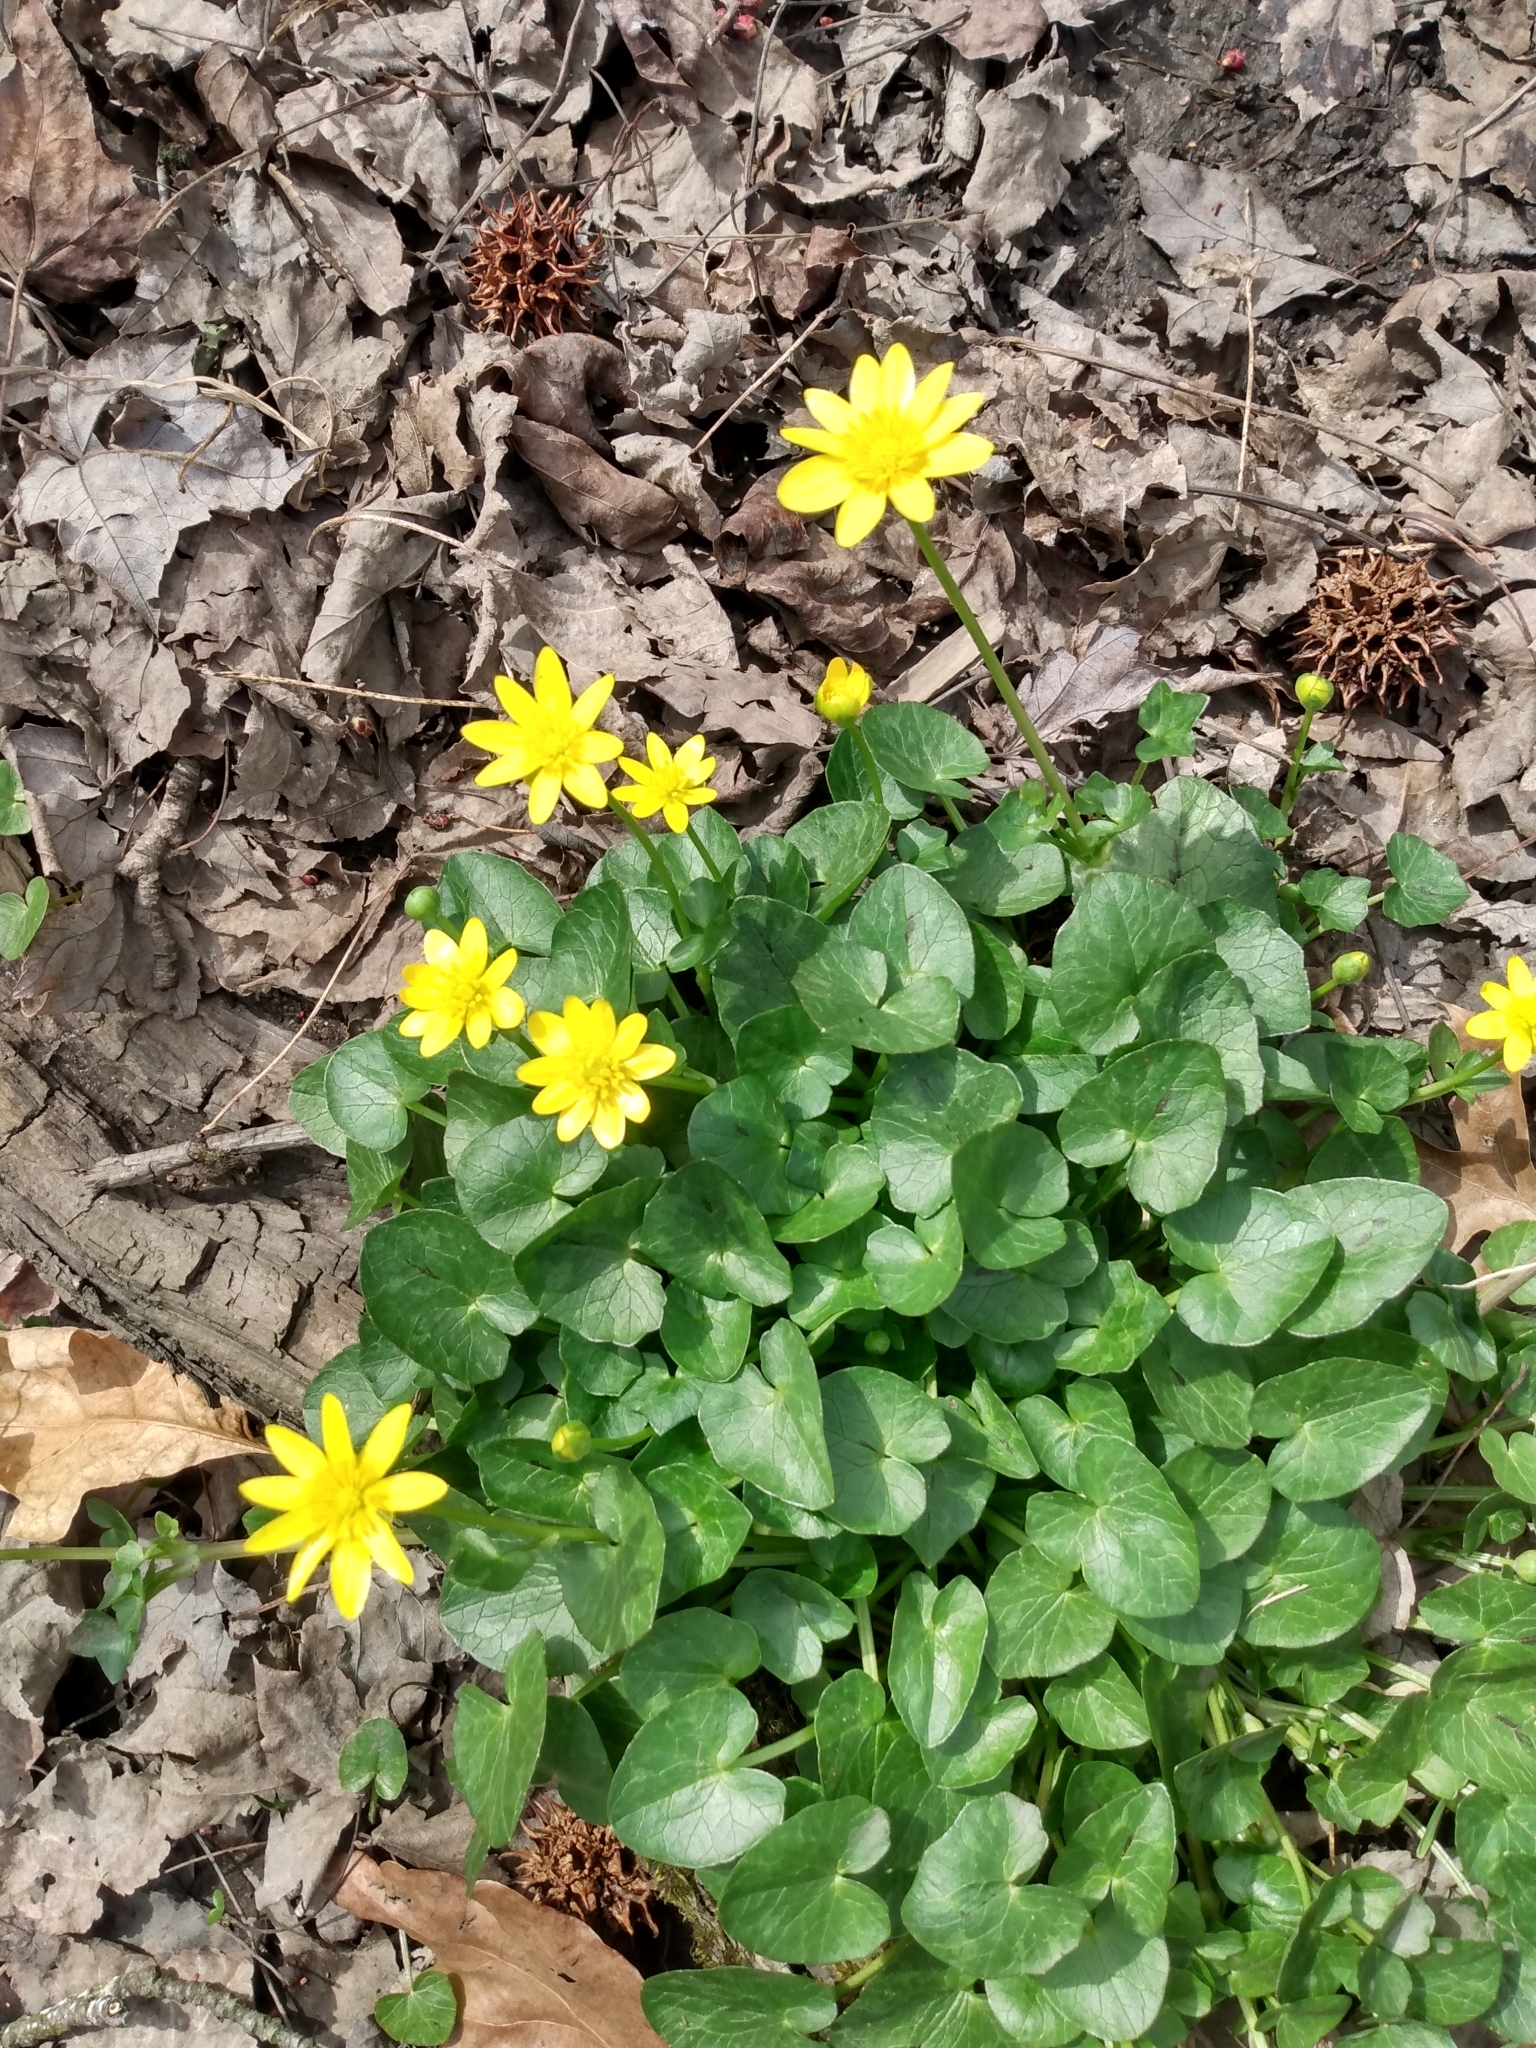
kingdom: Plantae
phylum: Tracheophyta
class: Magnoliopsida
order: Ranunculales
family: Ranunculaceae
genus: Ficaria
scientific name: Ficaria verna
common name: Lesser celandine
